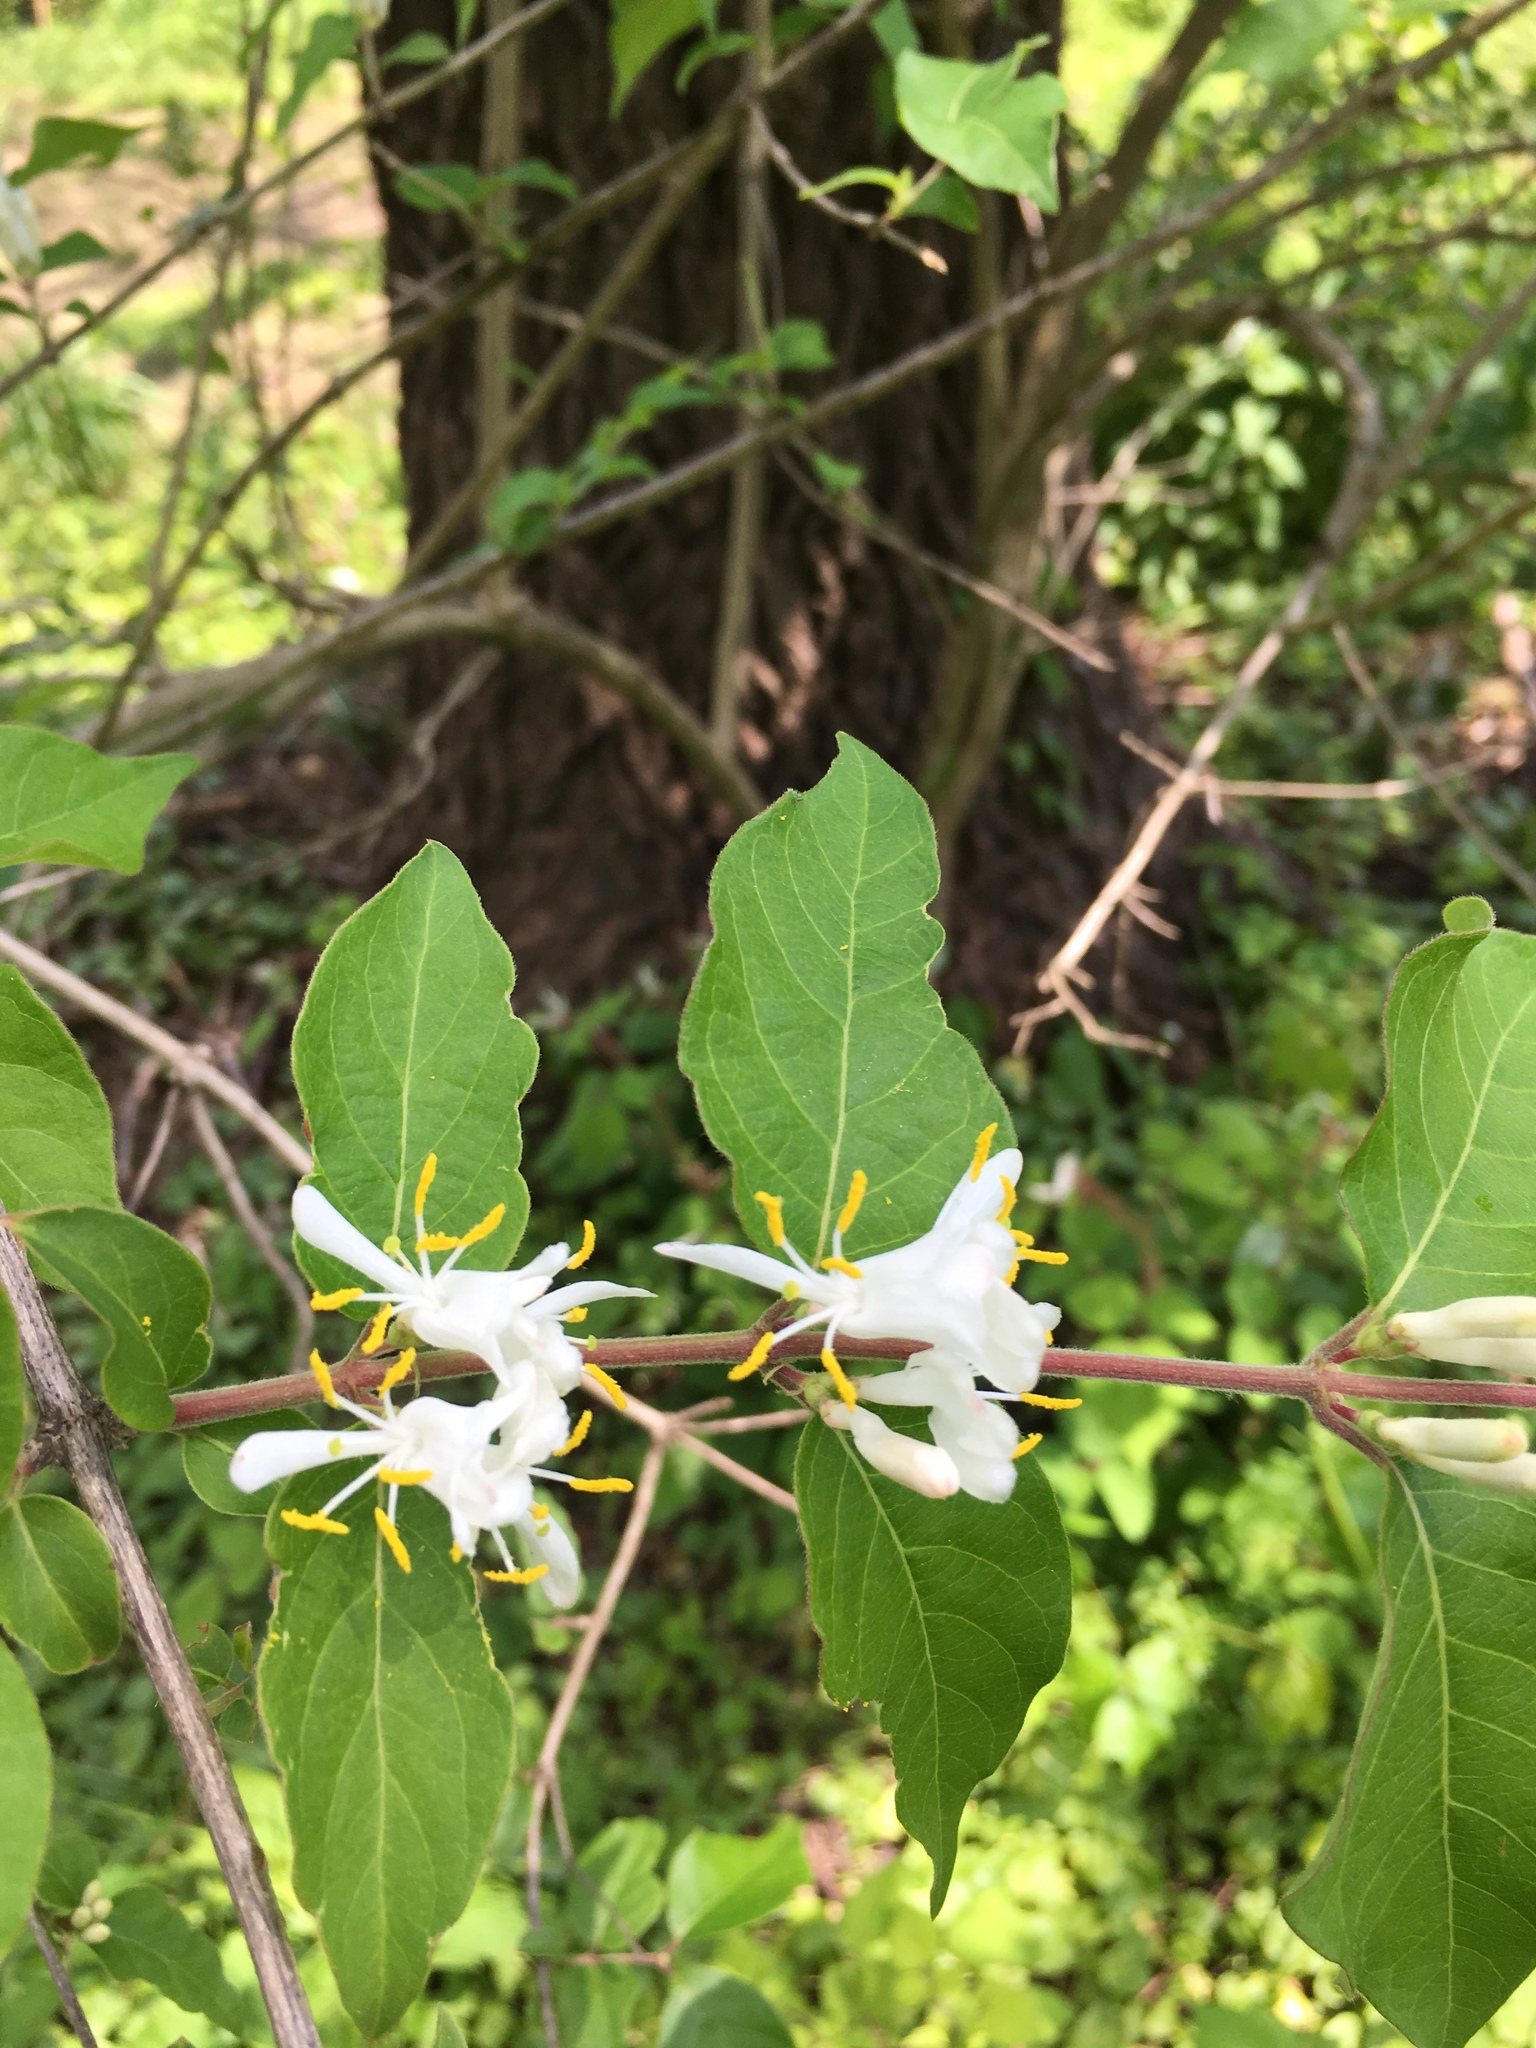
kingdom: Plantae
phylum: Tracheophyta
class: Magnoliopsida
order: Dipsacales
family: Caprifoliaceae
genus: Lonicera
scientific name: Lonicera maackii
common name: Amur honeysuckle
